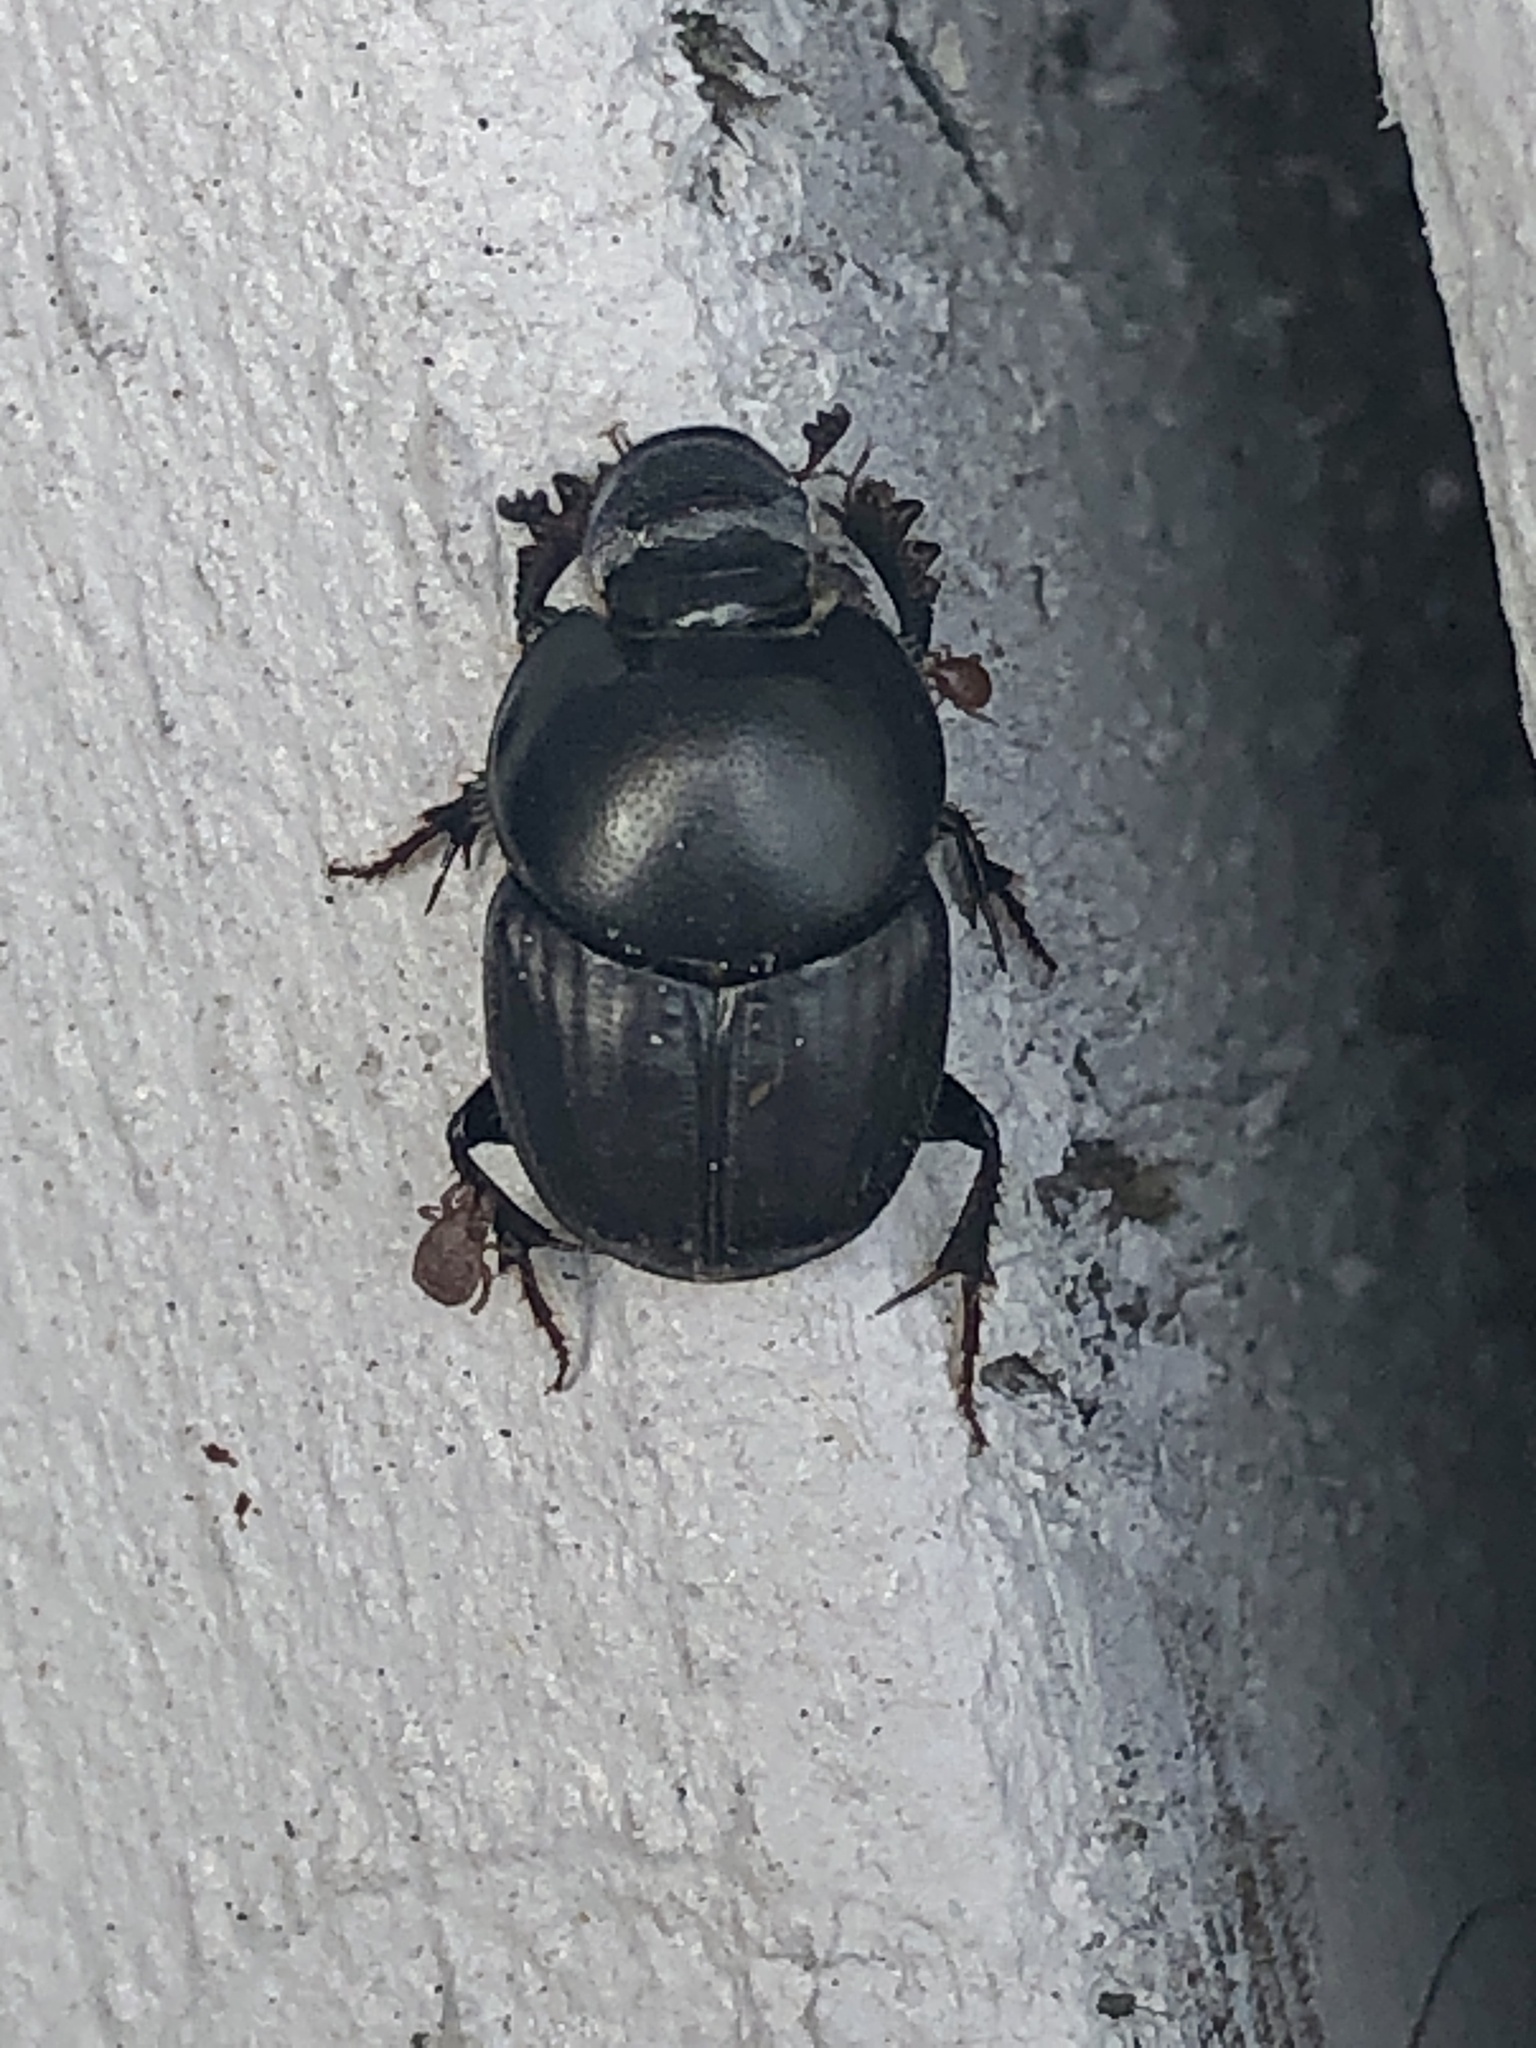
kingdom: Animalia
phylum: Arthropoda
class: Insecta
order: Coleoptera
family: Scarabaeidae
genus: Onthophagus
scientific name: Onthophagus taurus
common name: Bullhorned dung beetle
